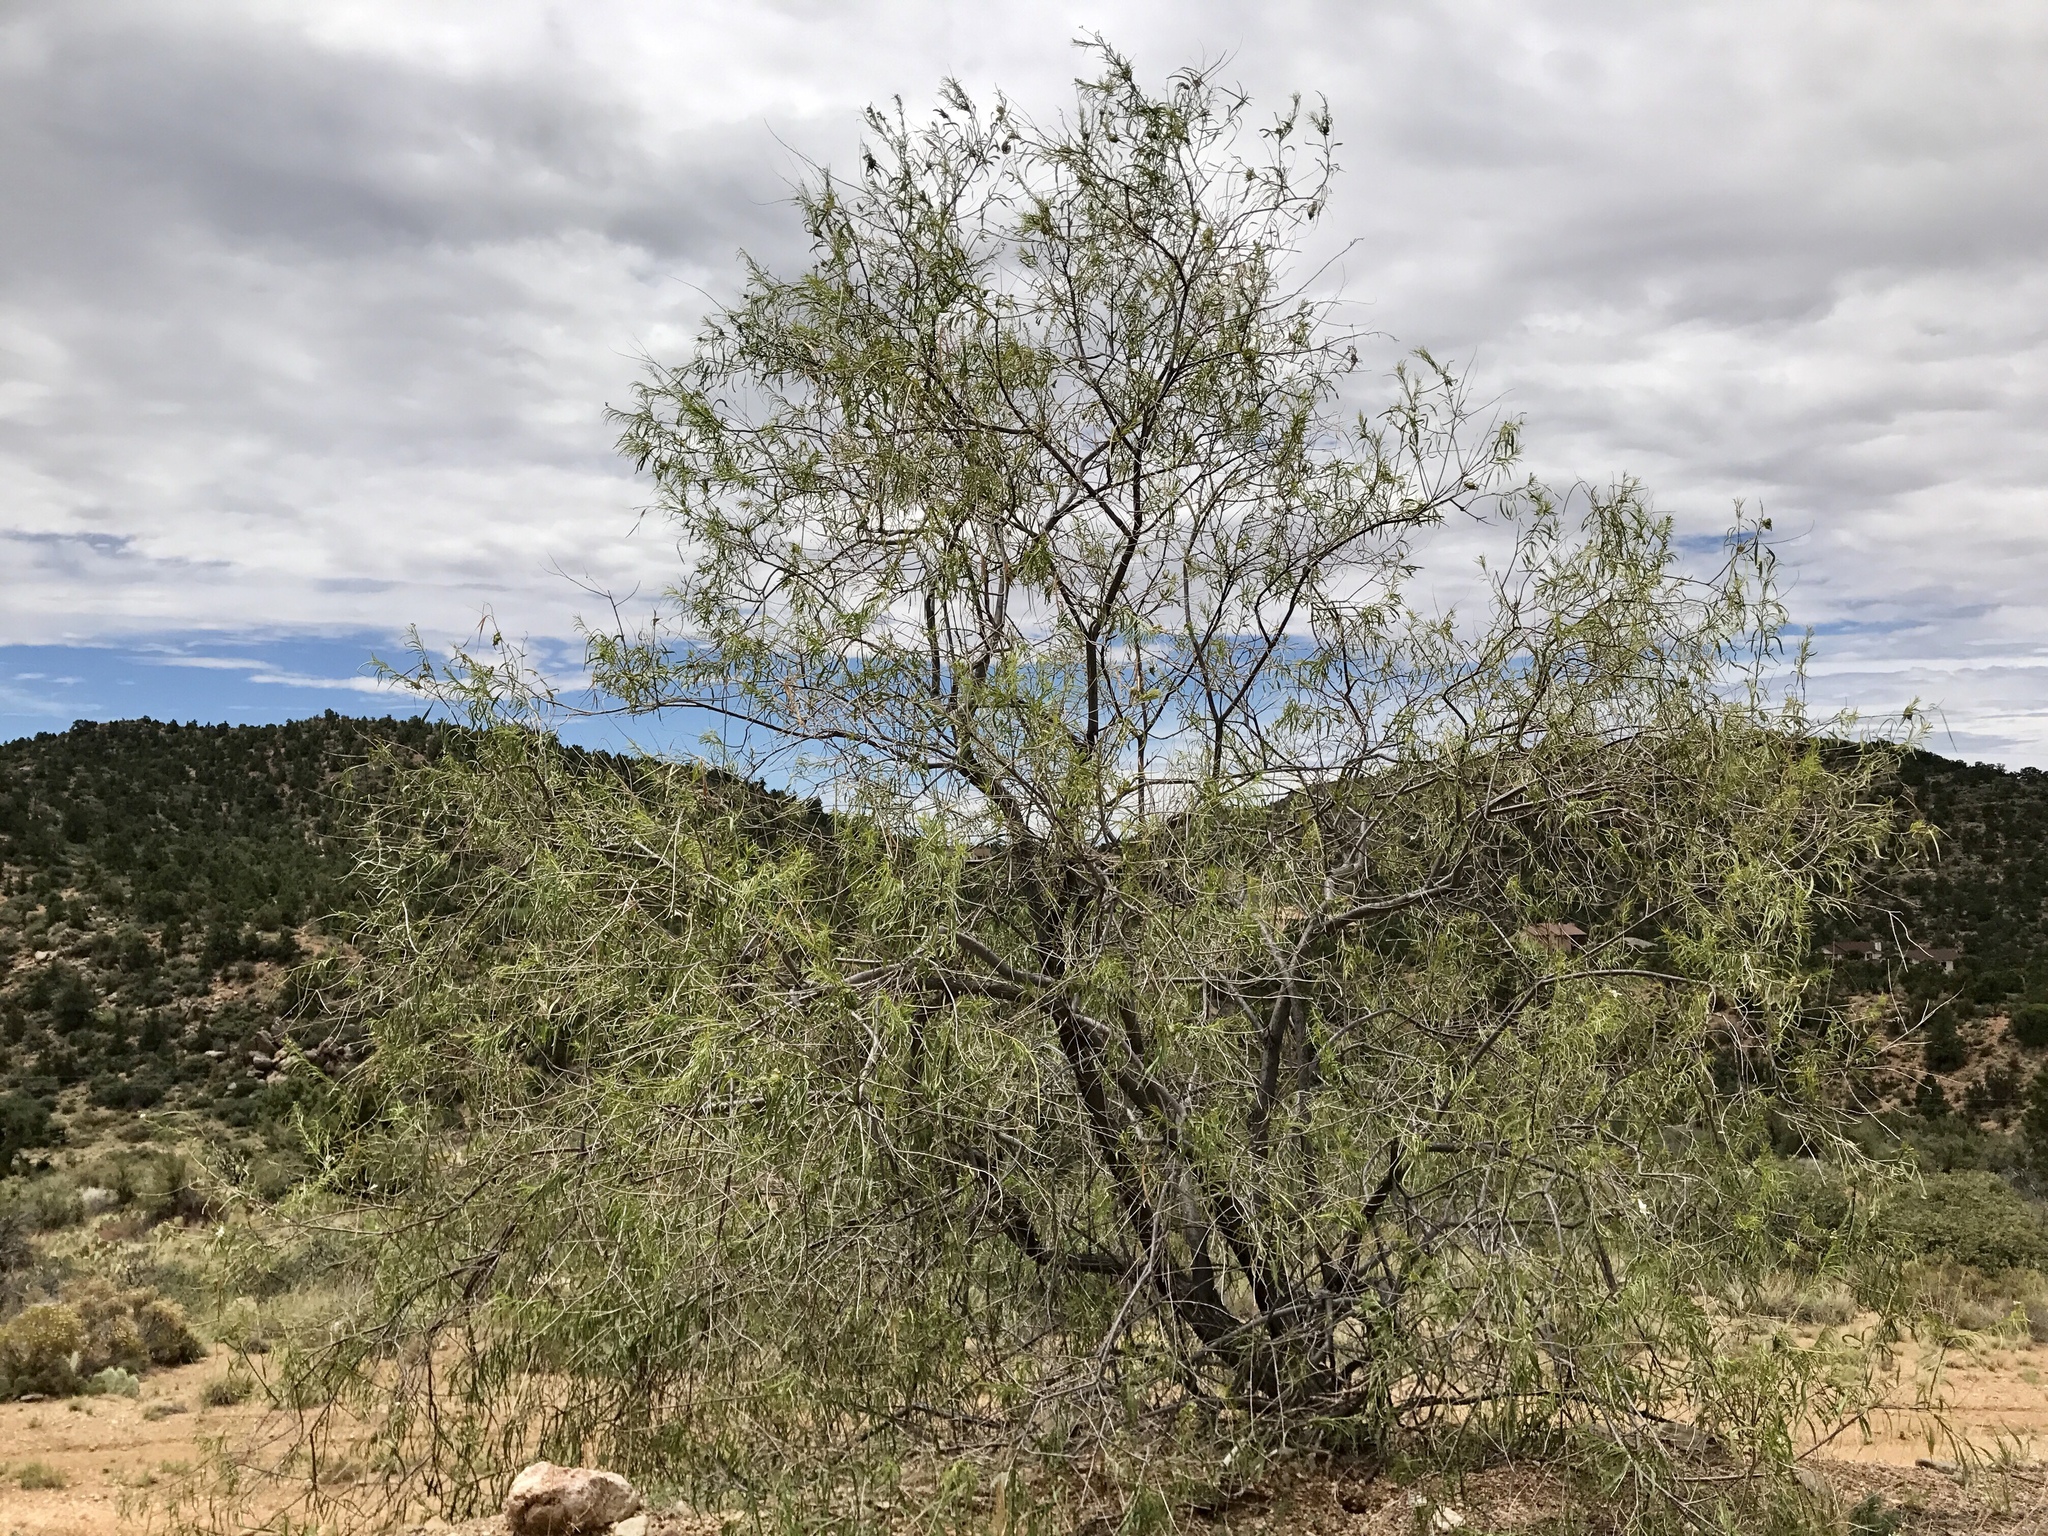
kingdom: Plantae
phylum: Tracheophyta
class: Magnoliopsida
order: Lamiales
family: Bignoniaceae
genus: Chilopsis
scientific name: Chilopsis linearis
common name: Desert-willow
